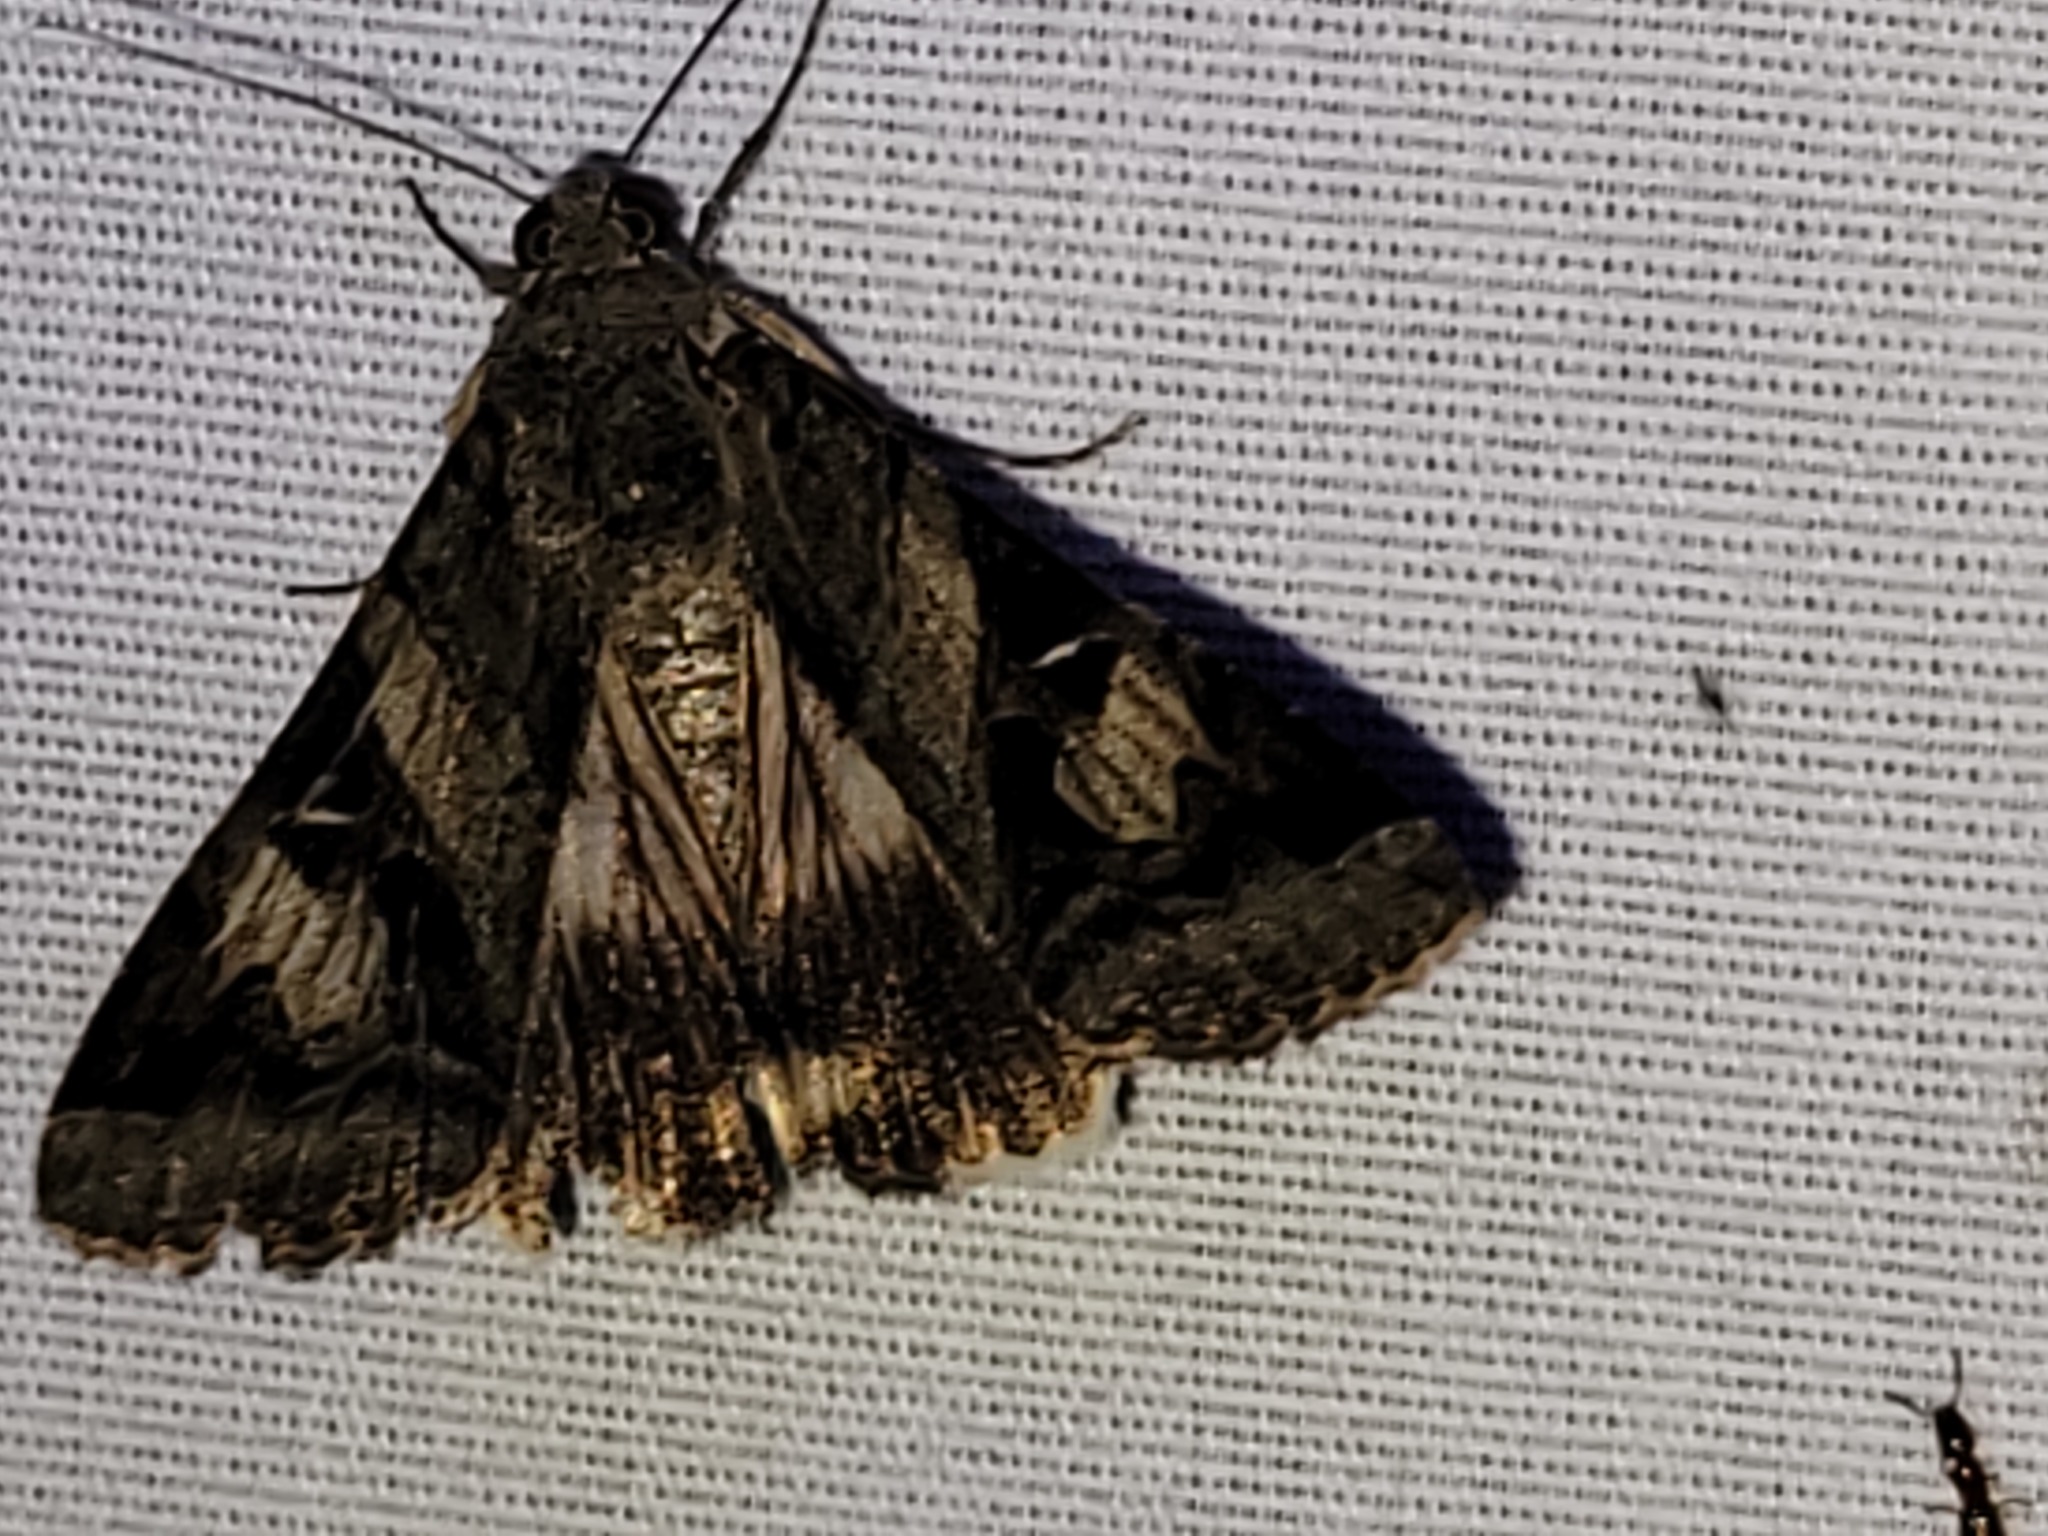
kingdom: Animalia
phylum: Arthropoda
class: Insecta
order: Lepidoptera
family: Erebidae
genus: Melipotis
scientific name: Melipotis indomita
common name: Moth
